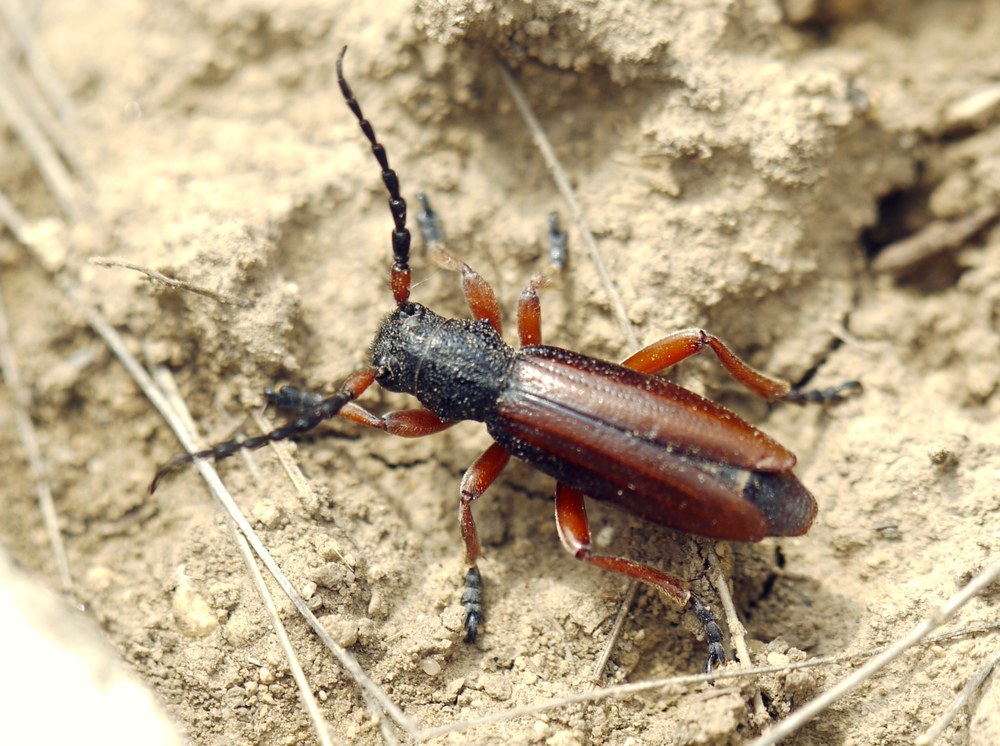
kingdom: Animalia
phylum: Arthropoda
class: Insecta
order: Coleoptera
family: Cerambycidae
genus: Dorcadion
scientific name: Dorcadion fulvum
